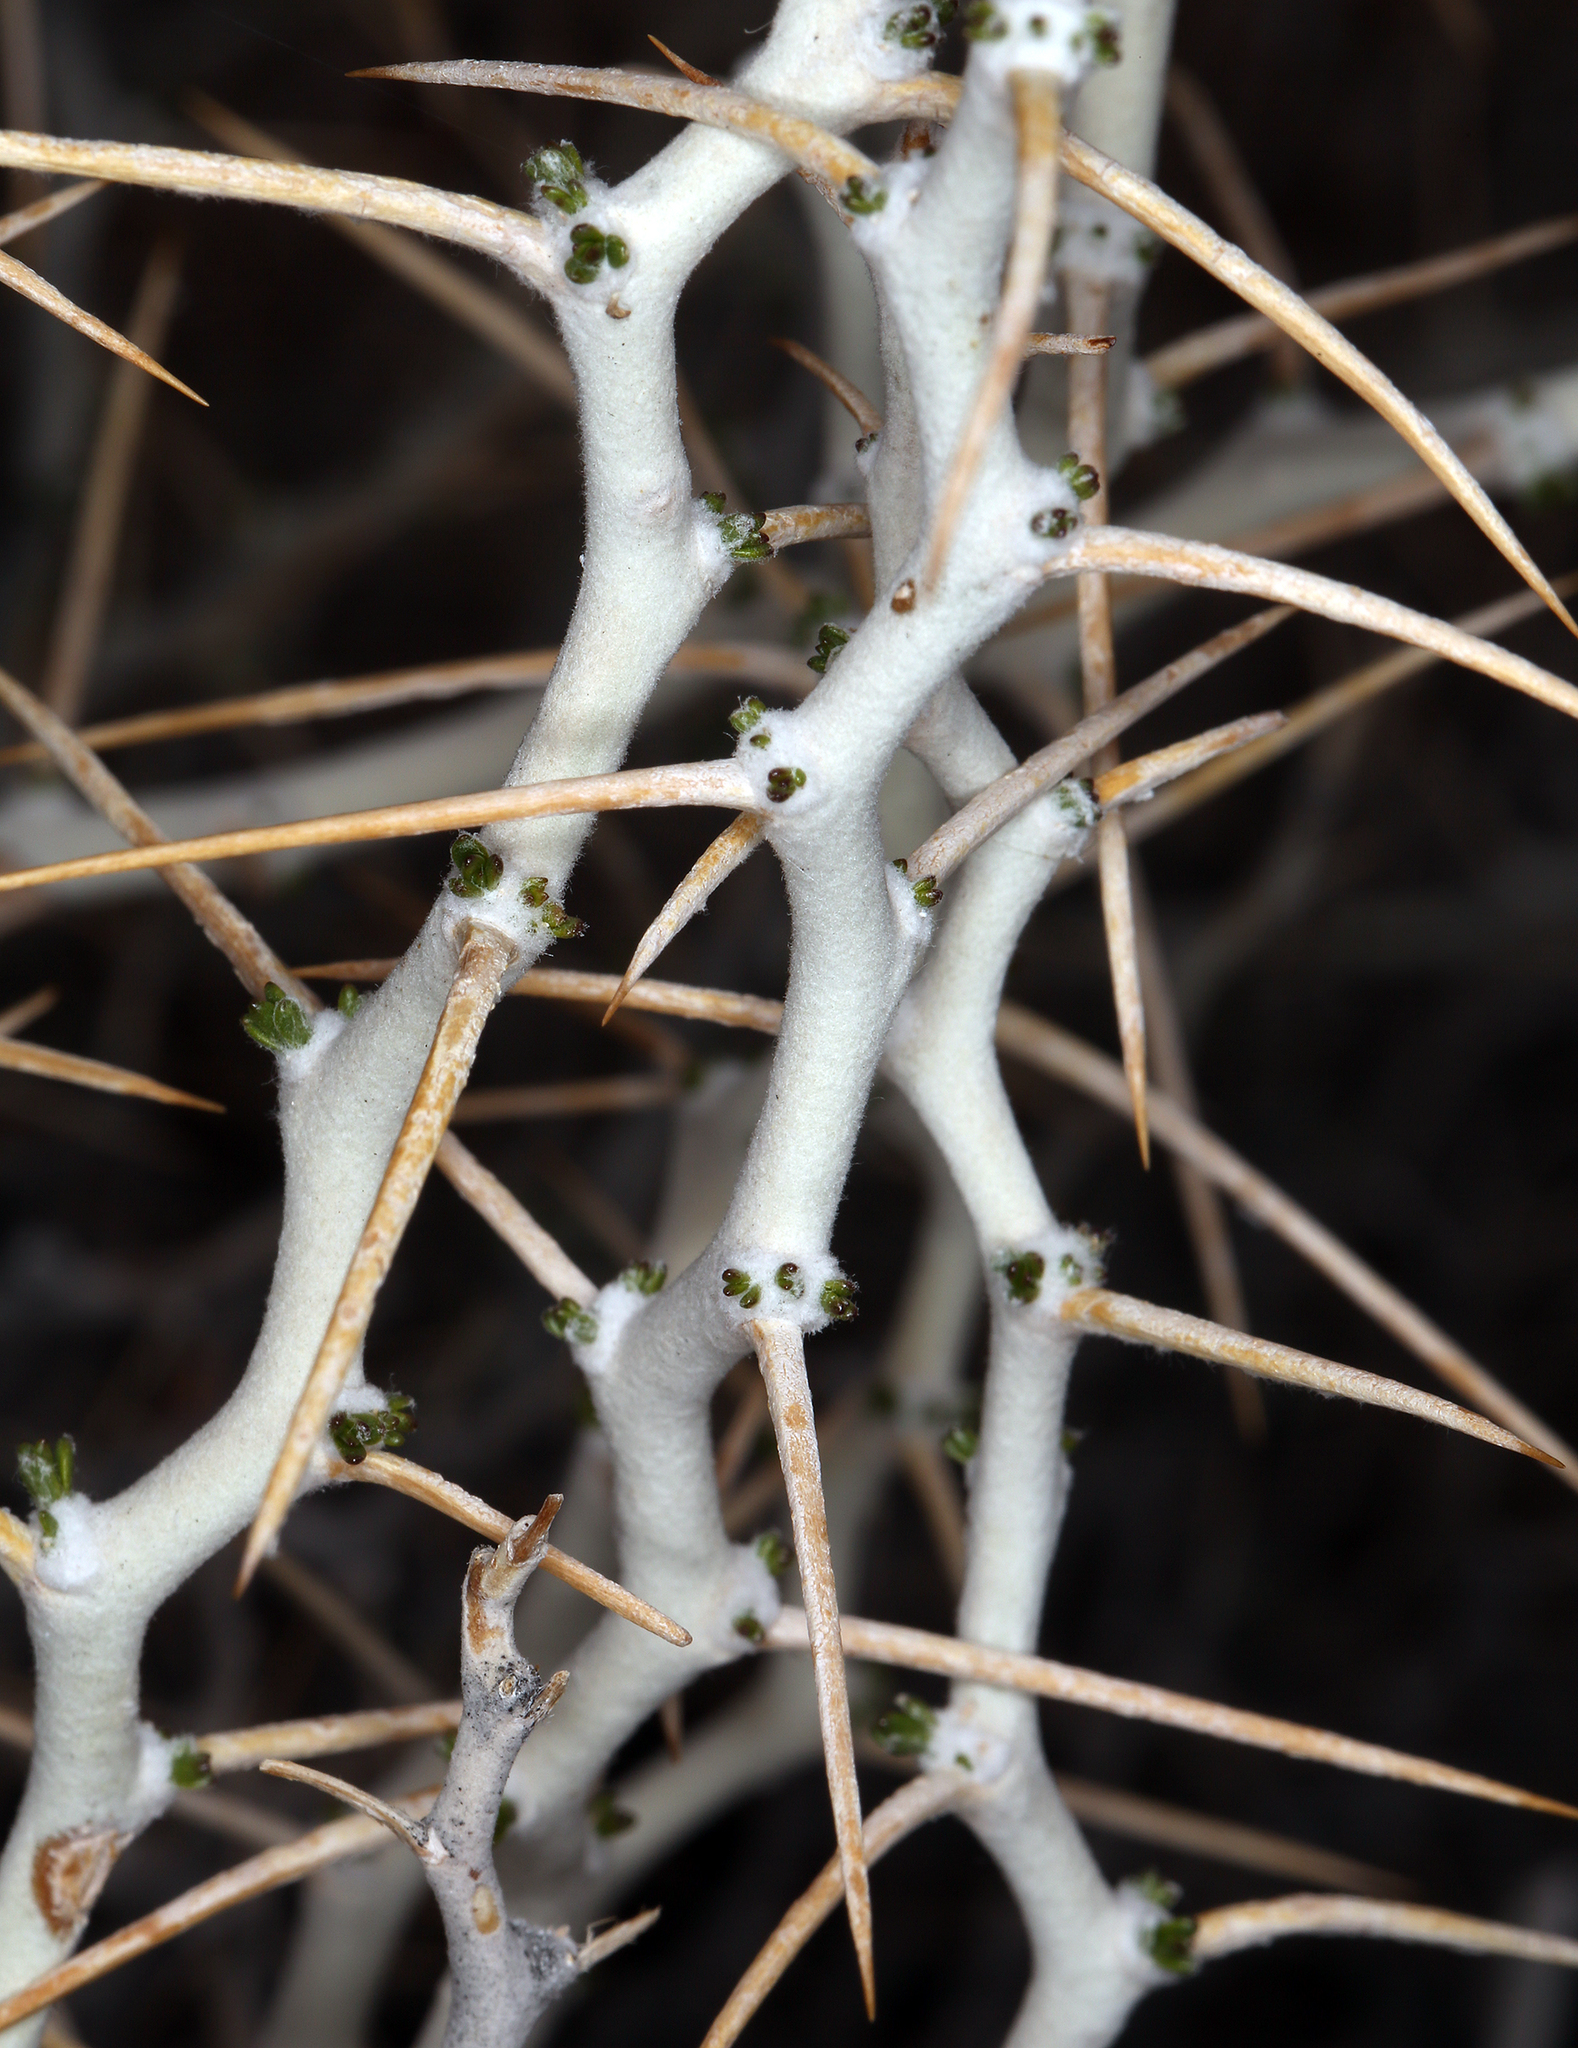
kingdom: Plantae
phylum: Tracheophyta
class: Magnoliopsida
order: Asterales
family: Asteraceae
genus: Tetradymia
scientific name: Tetradymia axillaris
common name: Long-spine horsebrush
